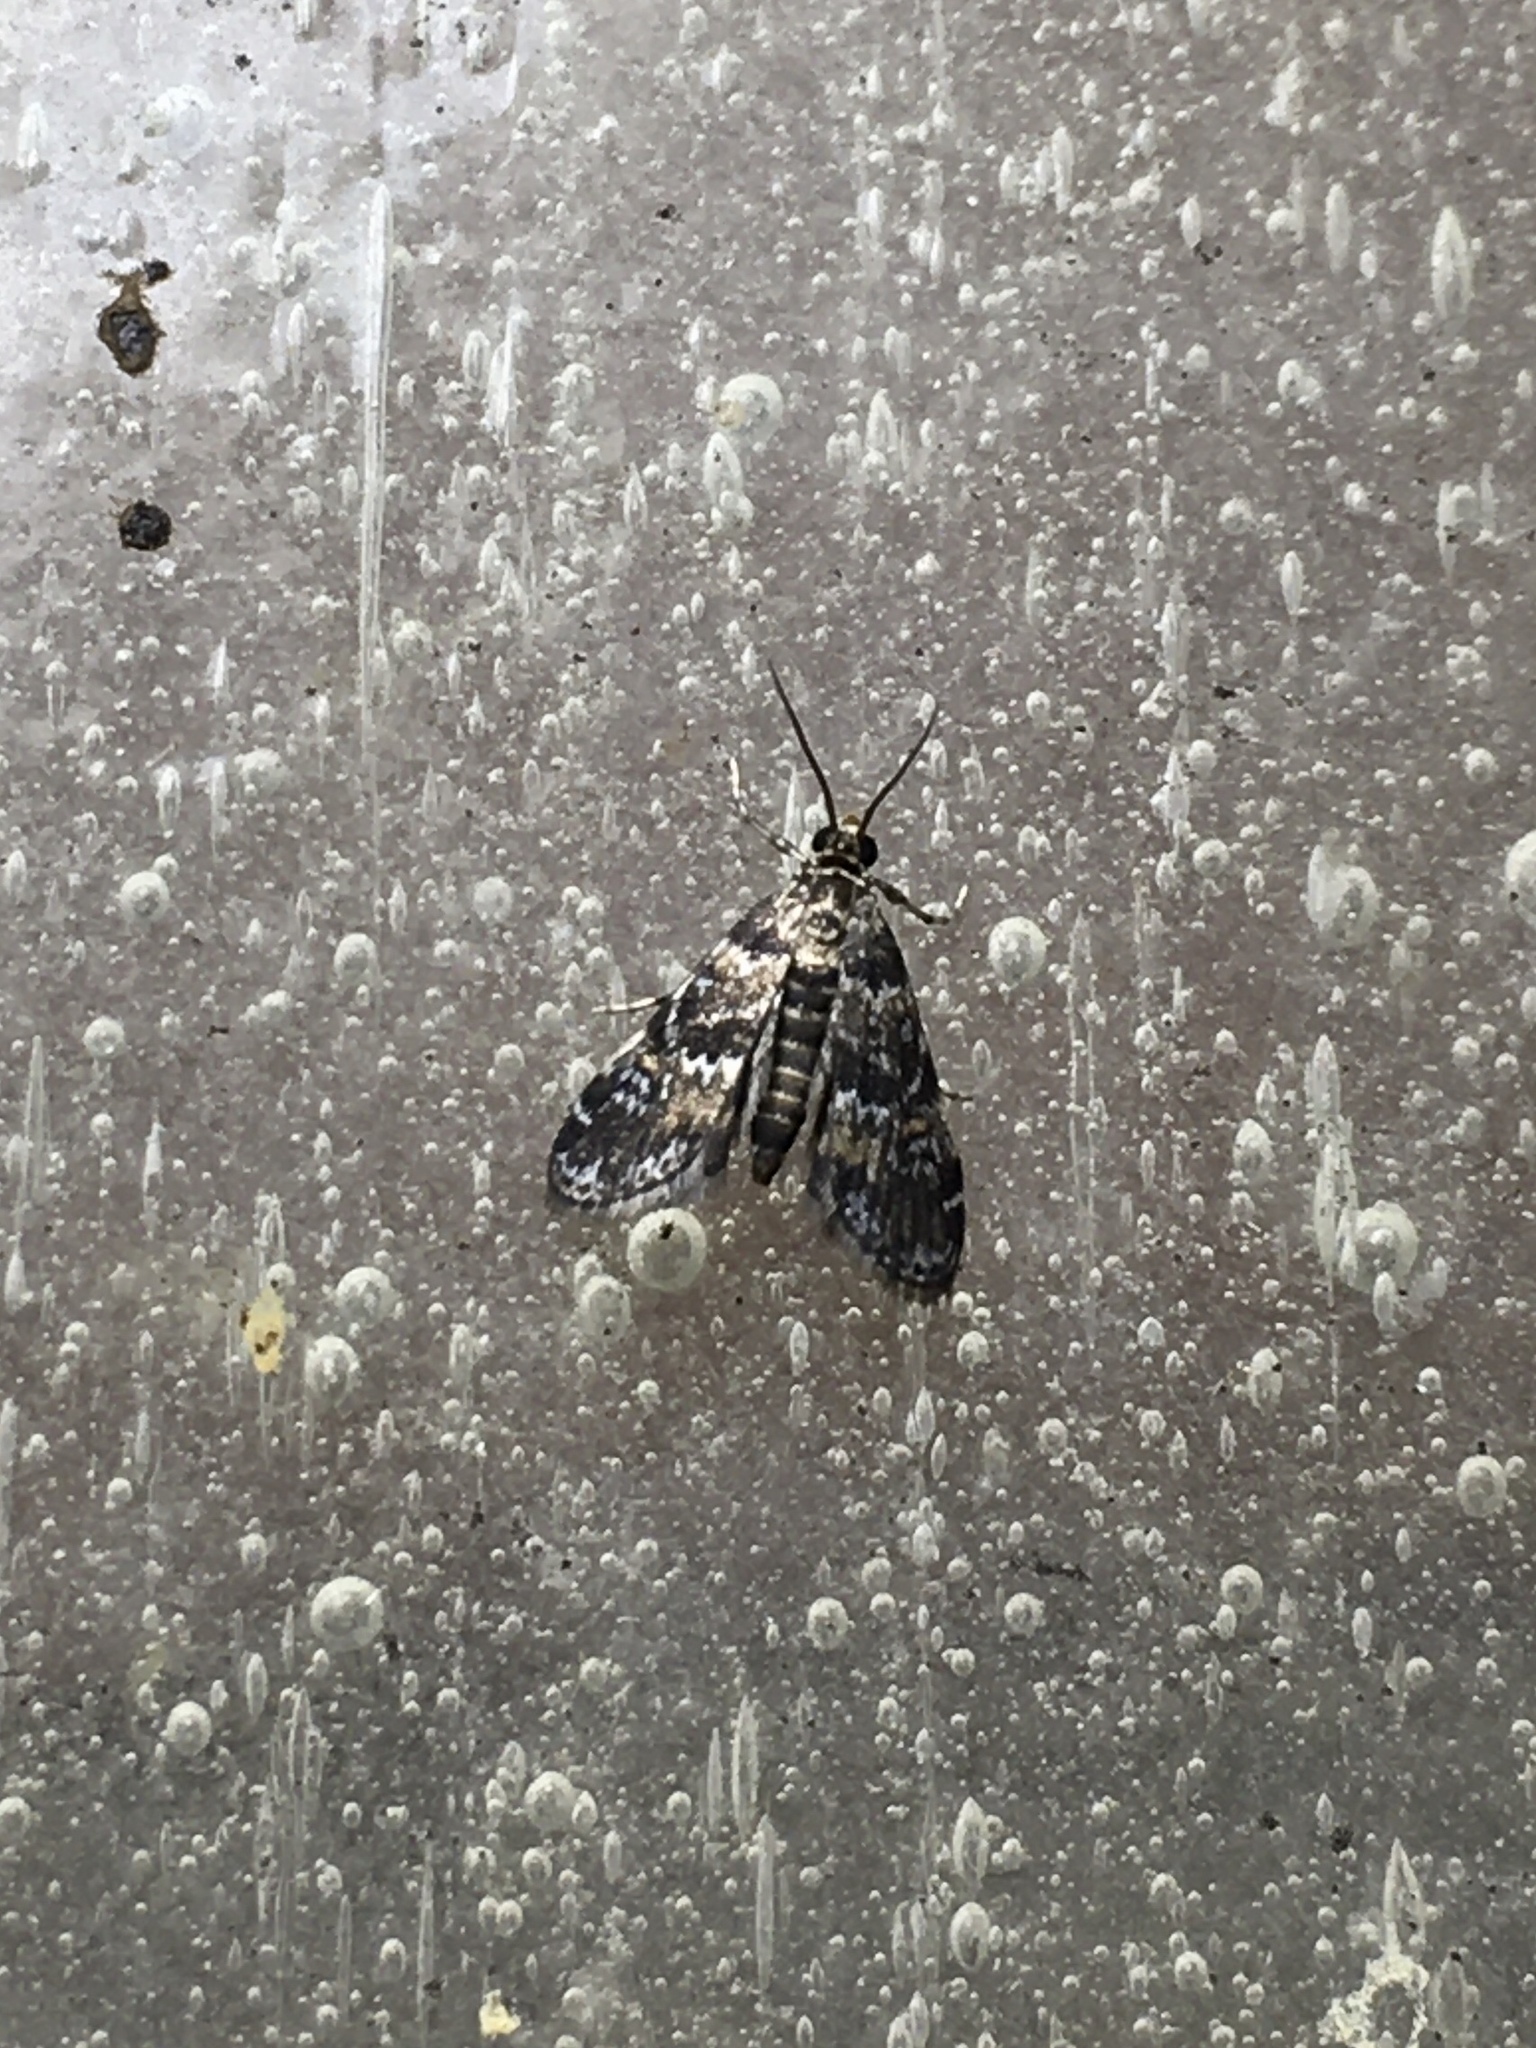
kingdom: Animalia
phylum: Arthropoda
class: Insecta
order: Lepidoptera
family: Crambidae
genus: Elophila
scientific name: Elophila obliteralis
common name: Waterlily leafcutter moth
